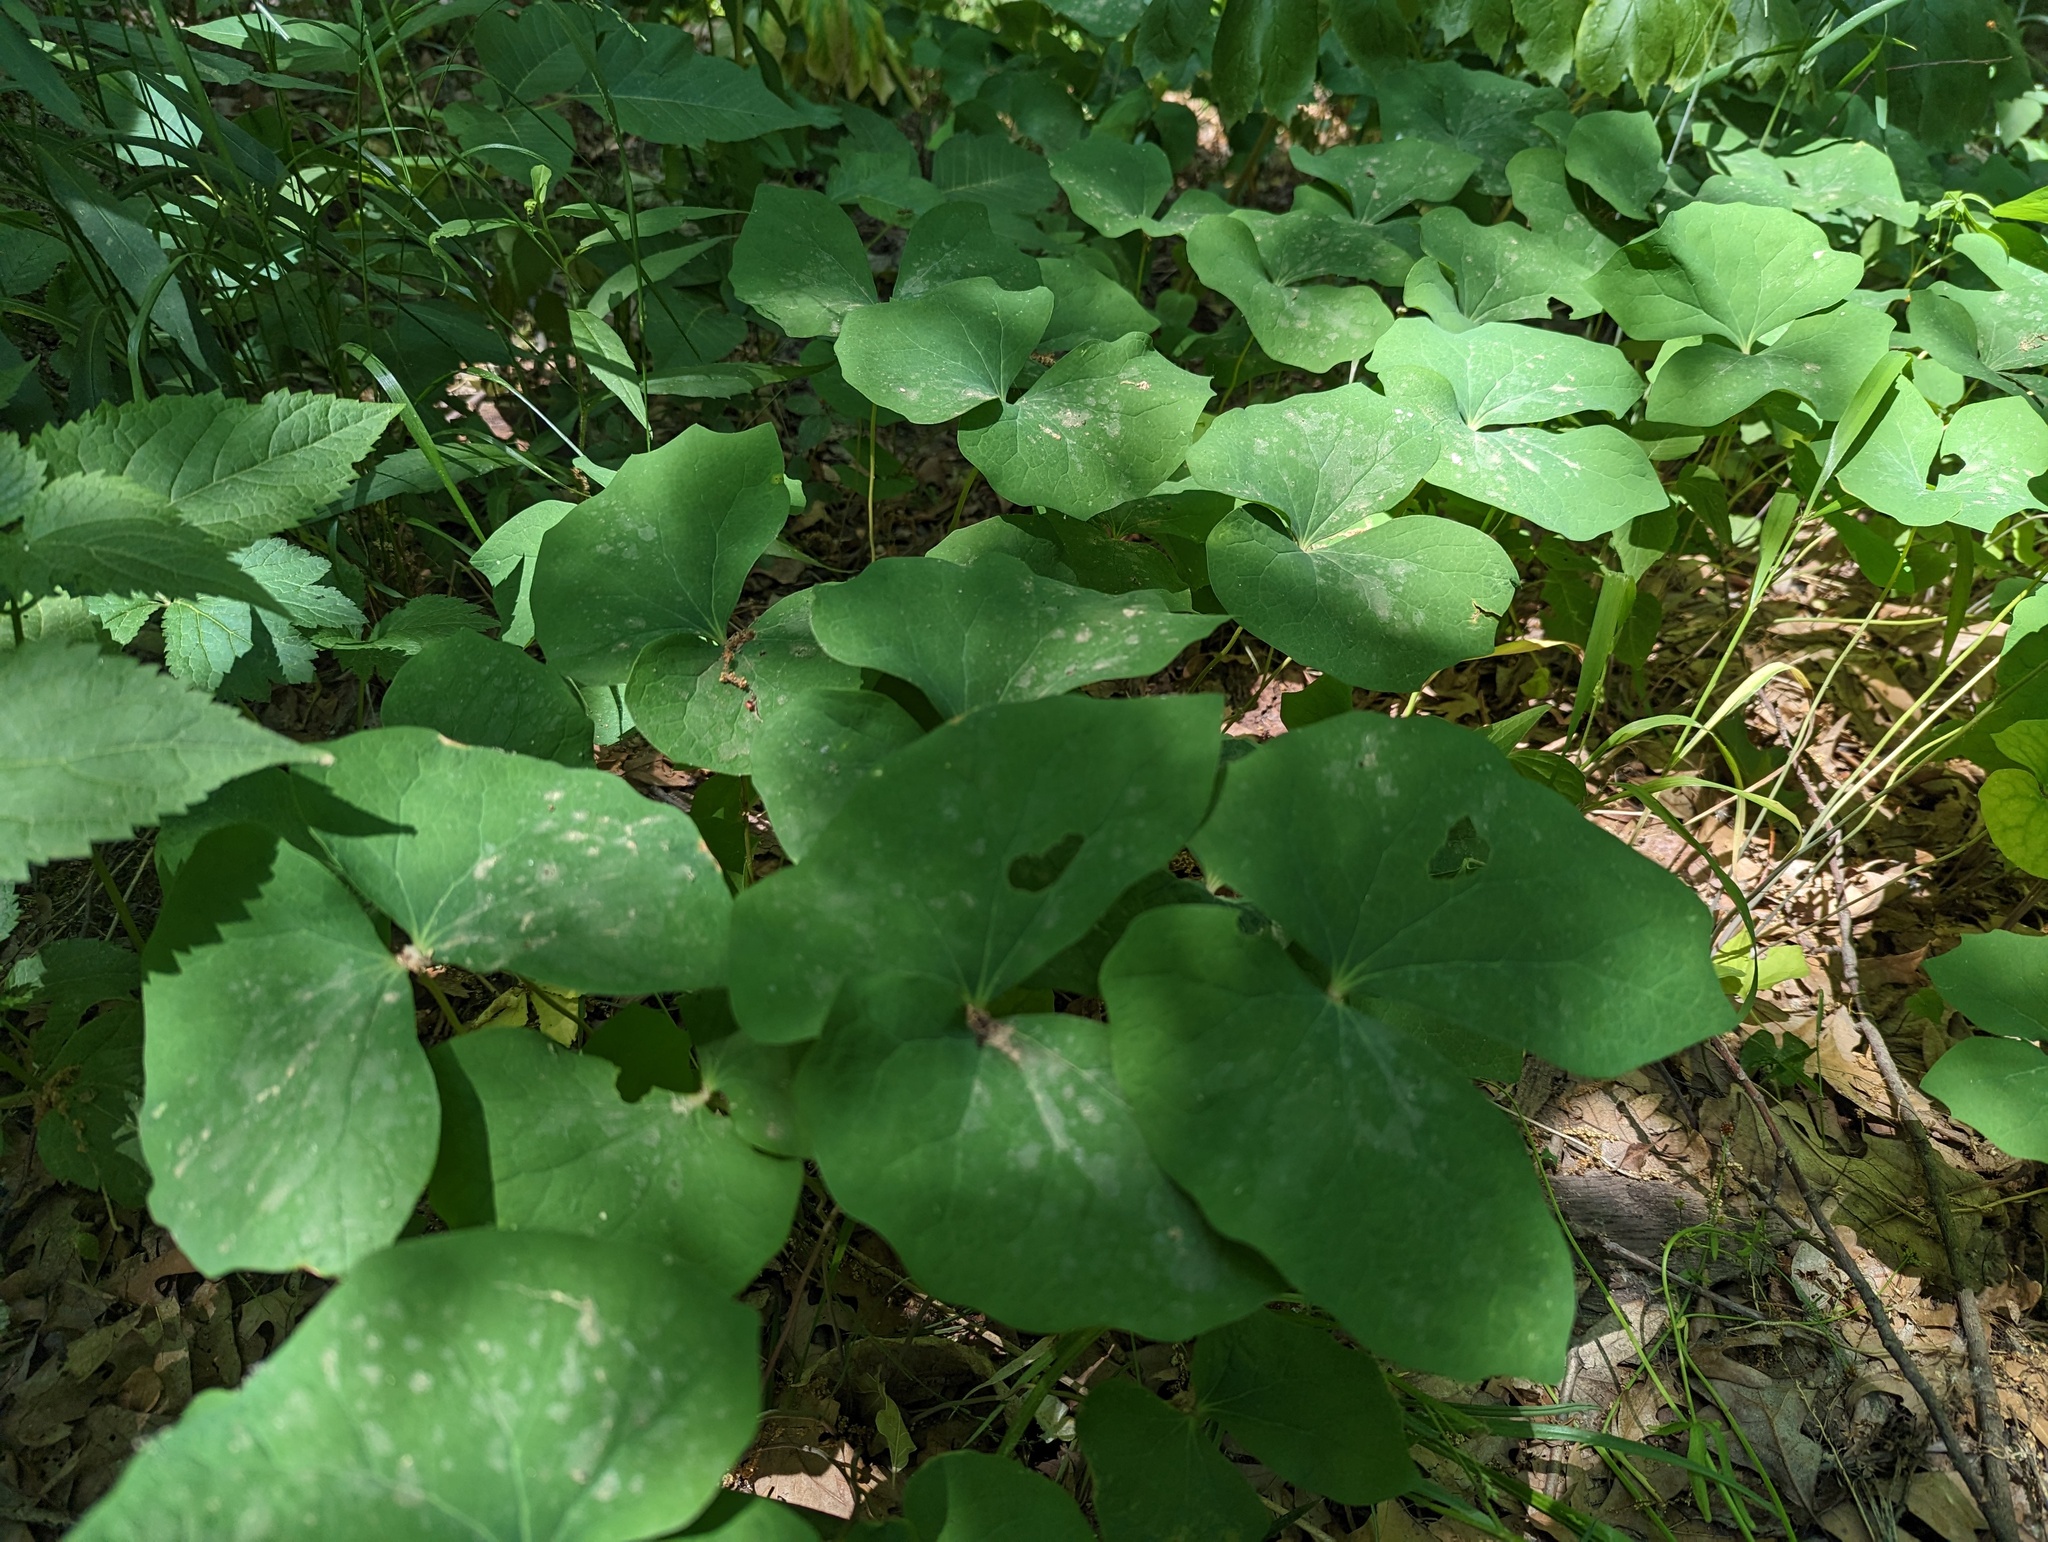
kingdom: Plantae
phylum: Tracheophyta
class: Magnoliopsida
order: Ranunculales
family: Berberidaceae
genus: Jeffersonia
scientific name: Jeffersonia diphylla
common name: Rheumatism-root
